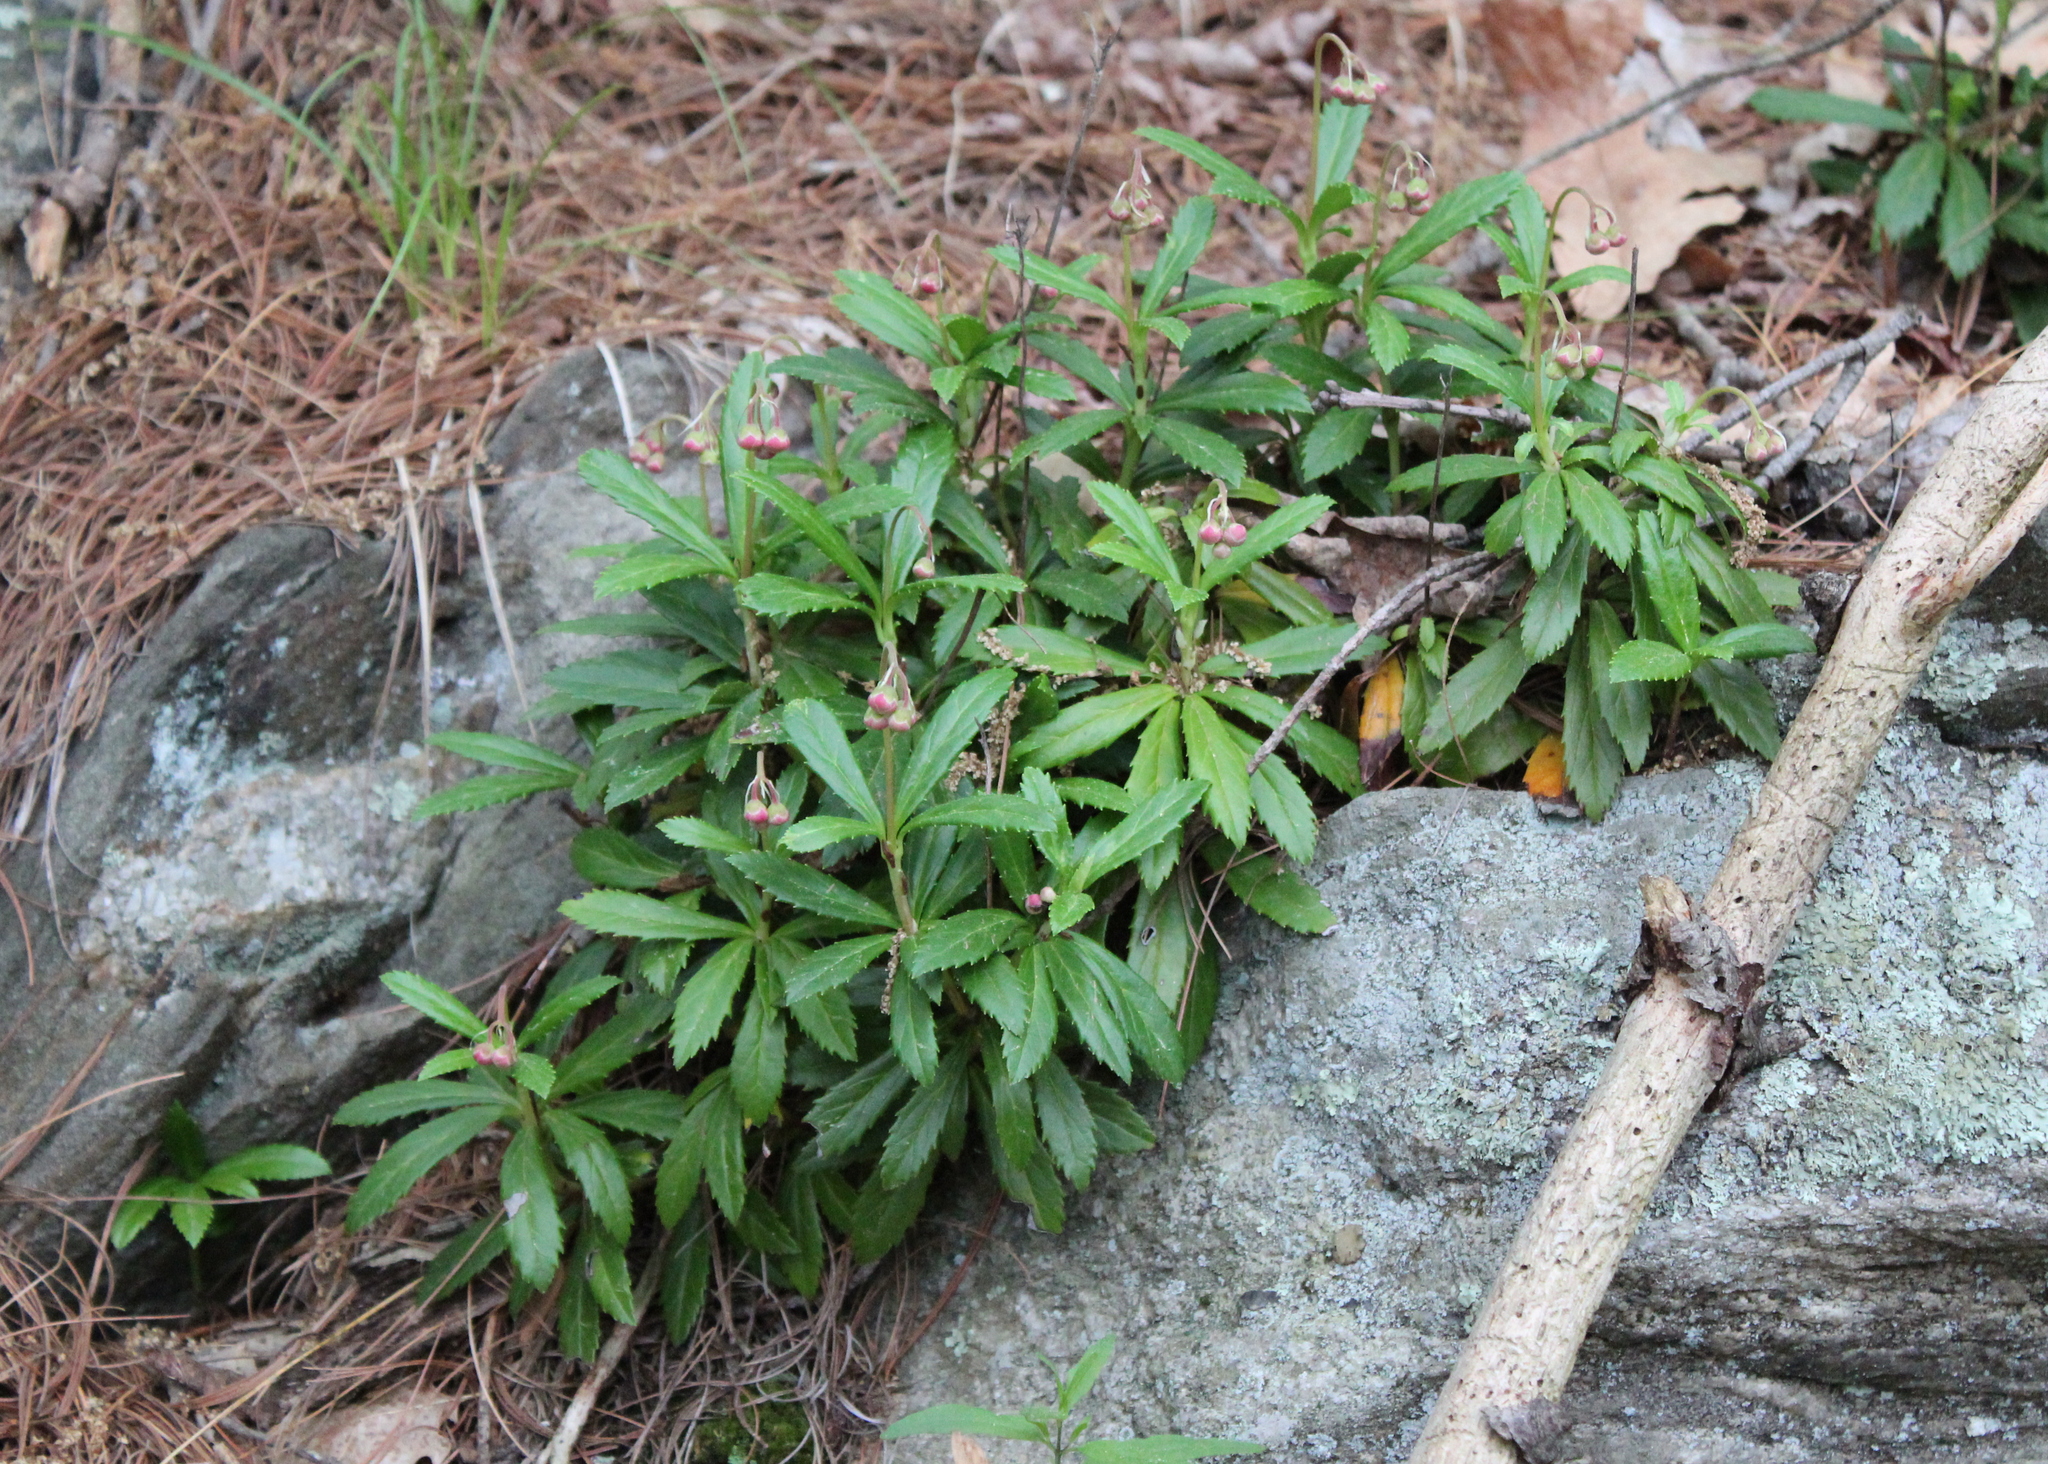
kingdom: Plantae
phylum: Tracheophyta
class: Magnoliopsida
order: Ericales
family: Ericaceae
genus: Chimaphila
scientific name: Chimaphila umbellata
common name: Pipsissewa
